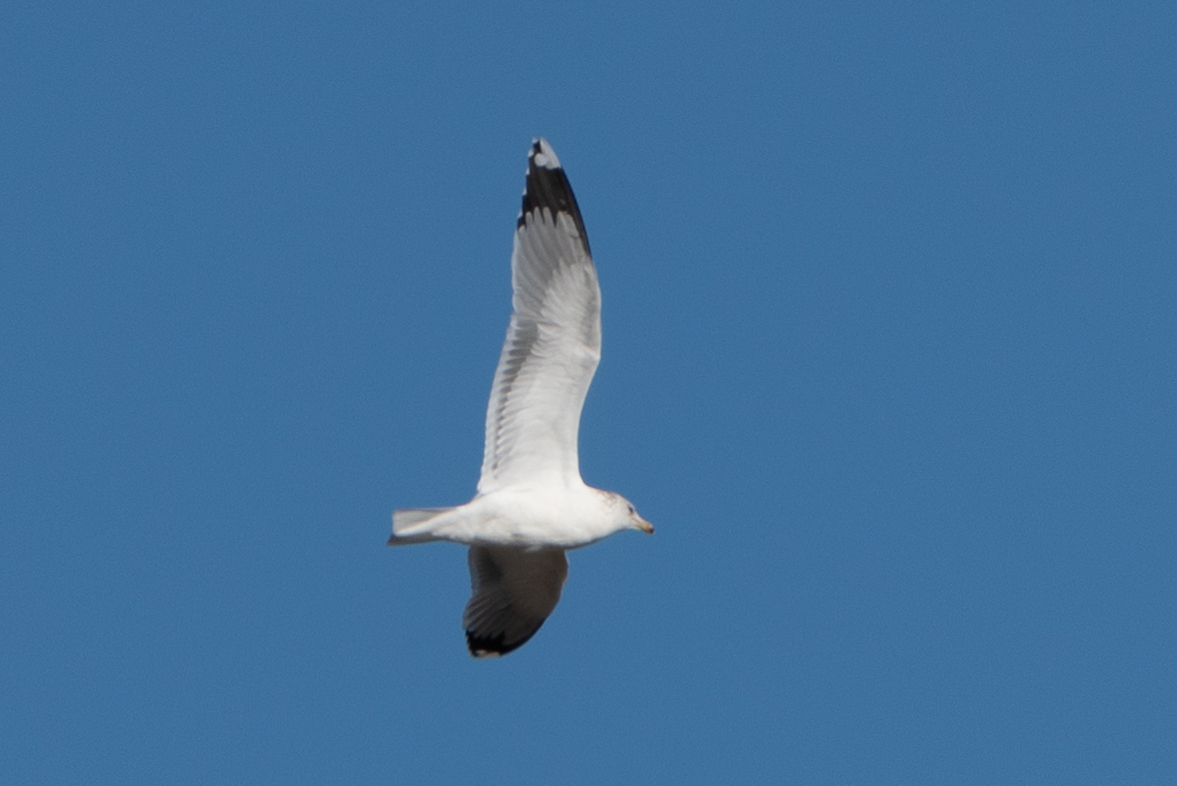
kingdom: Animalia
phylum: Chordata
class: Aves
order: Charadriiformes
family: Laridae
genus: Larus
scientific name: Larus californicus
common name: California gull
